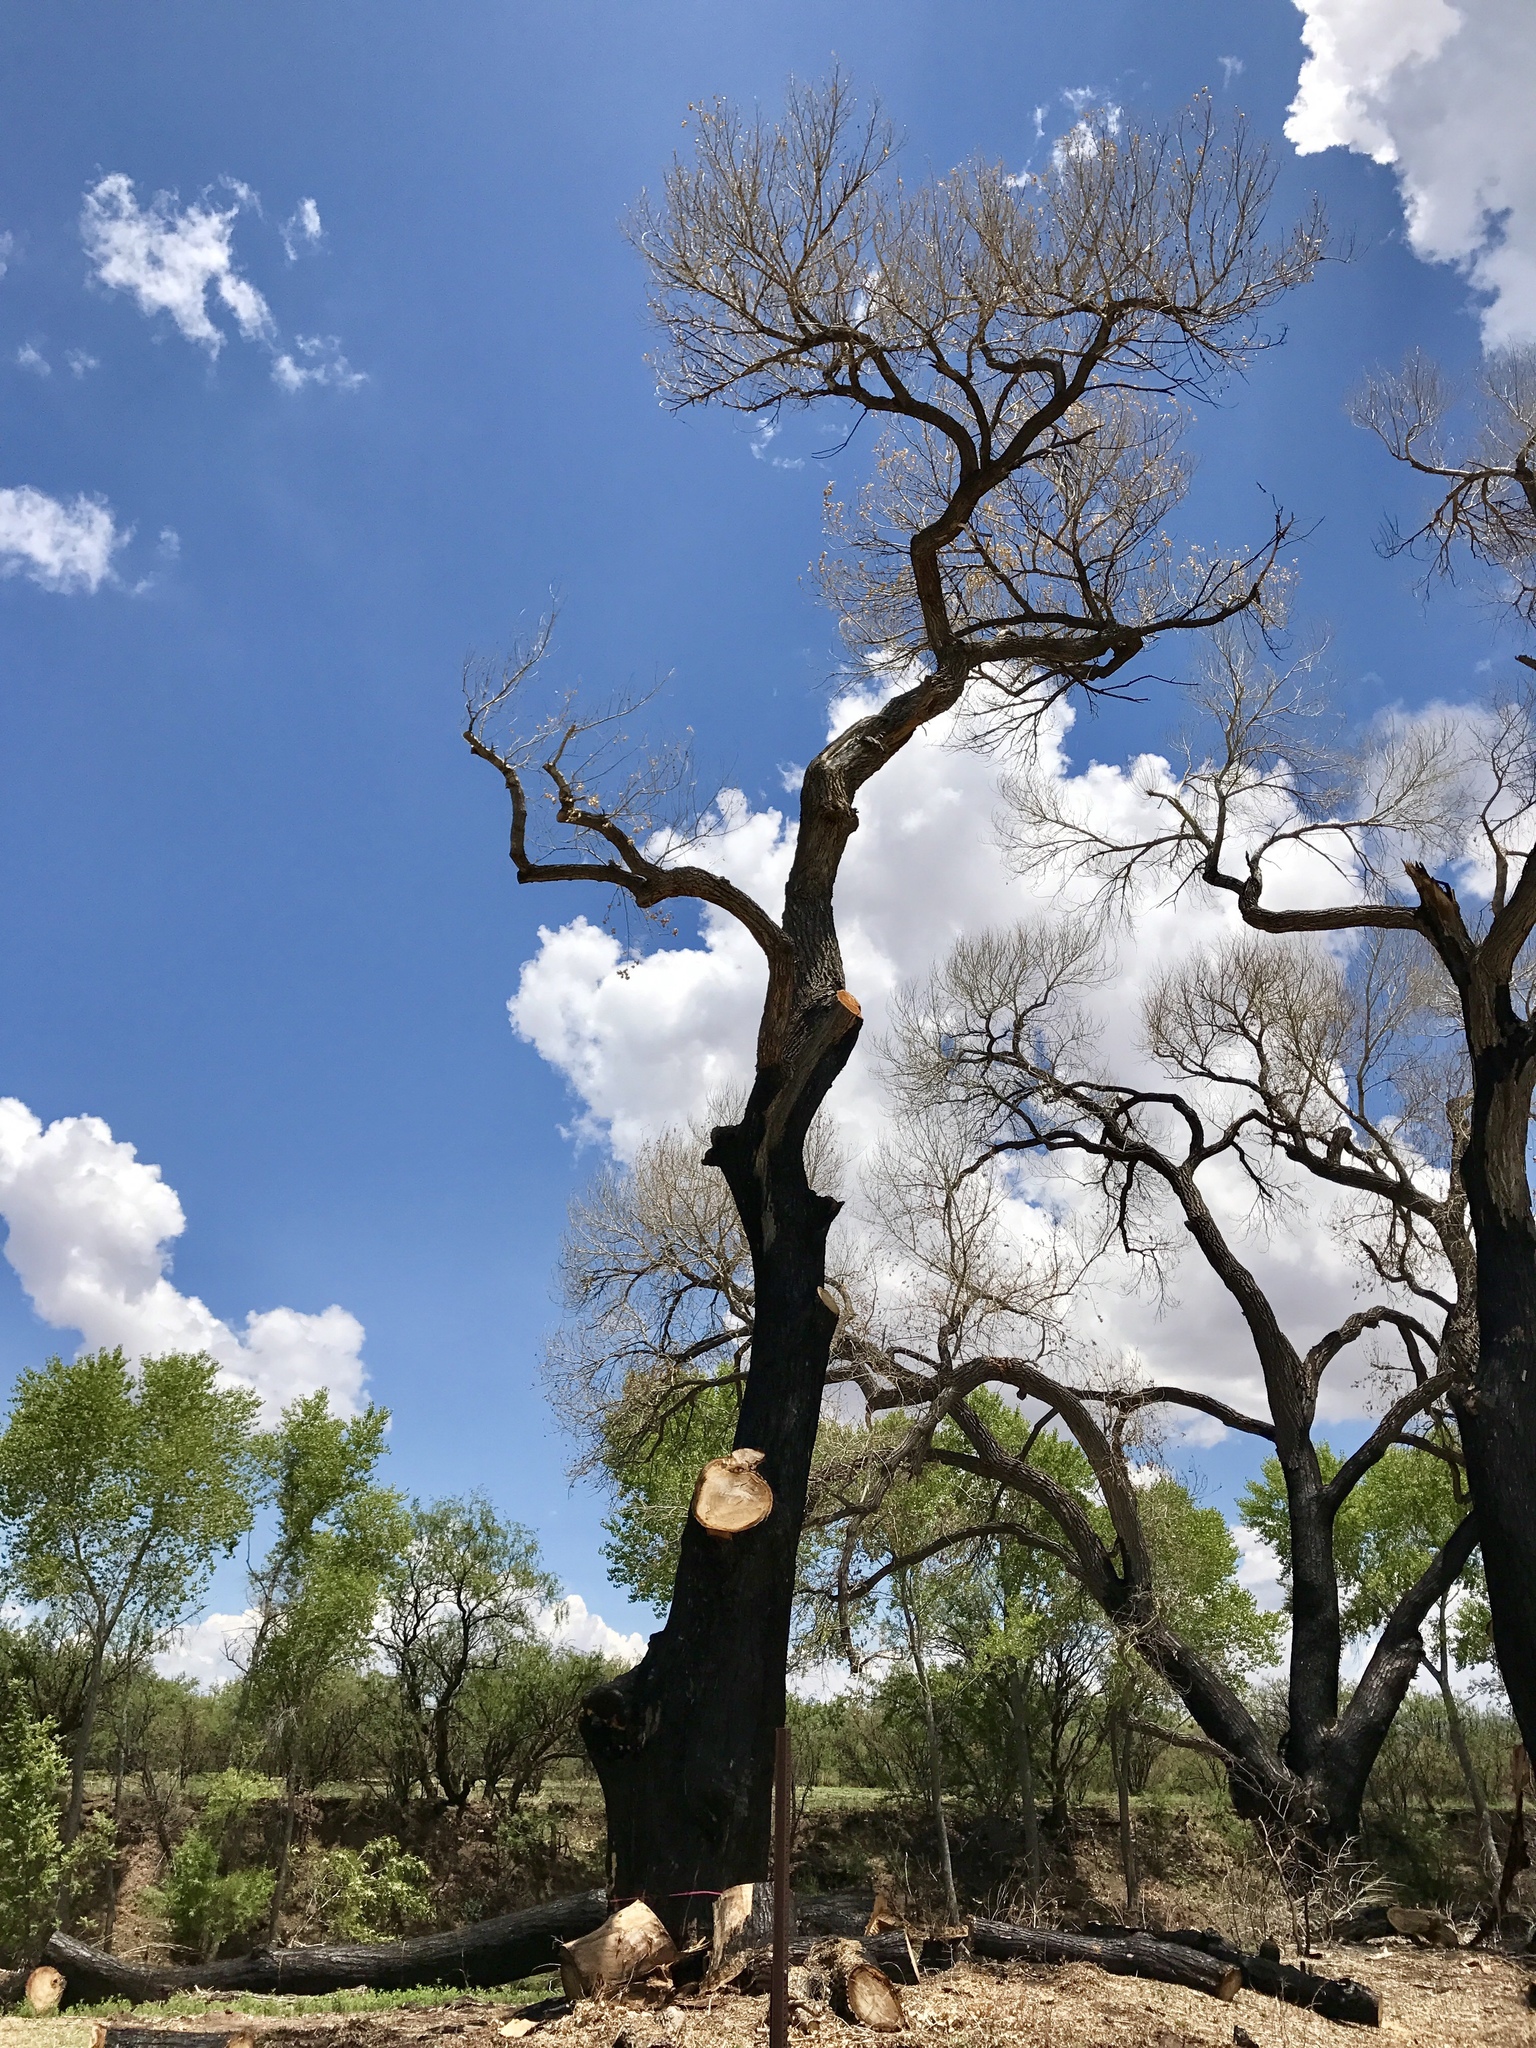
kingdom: Plantae
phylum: Tracheophyta
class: Magnoliopsida
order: Malpighiales
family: Salicaceae
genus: Populus
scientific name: Populus fremontii
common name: Fremont's cottonwood
